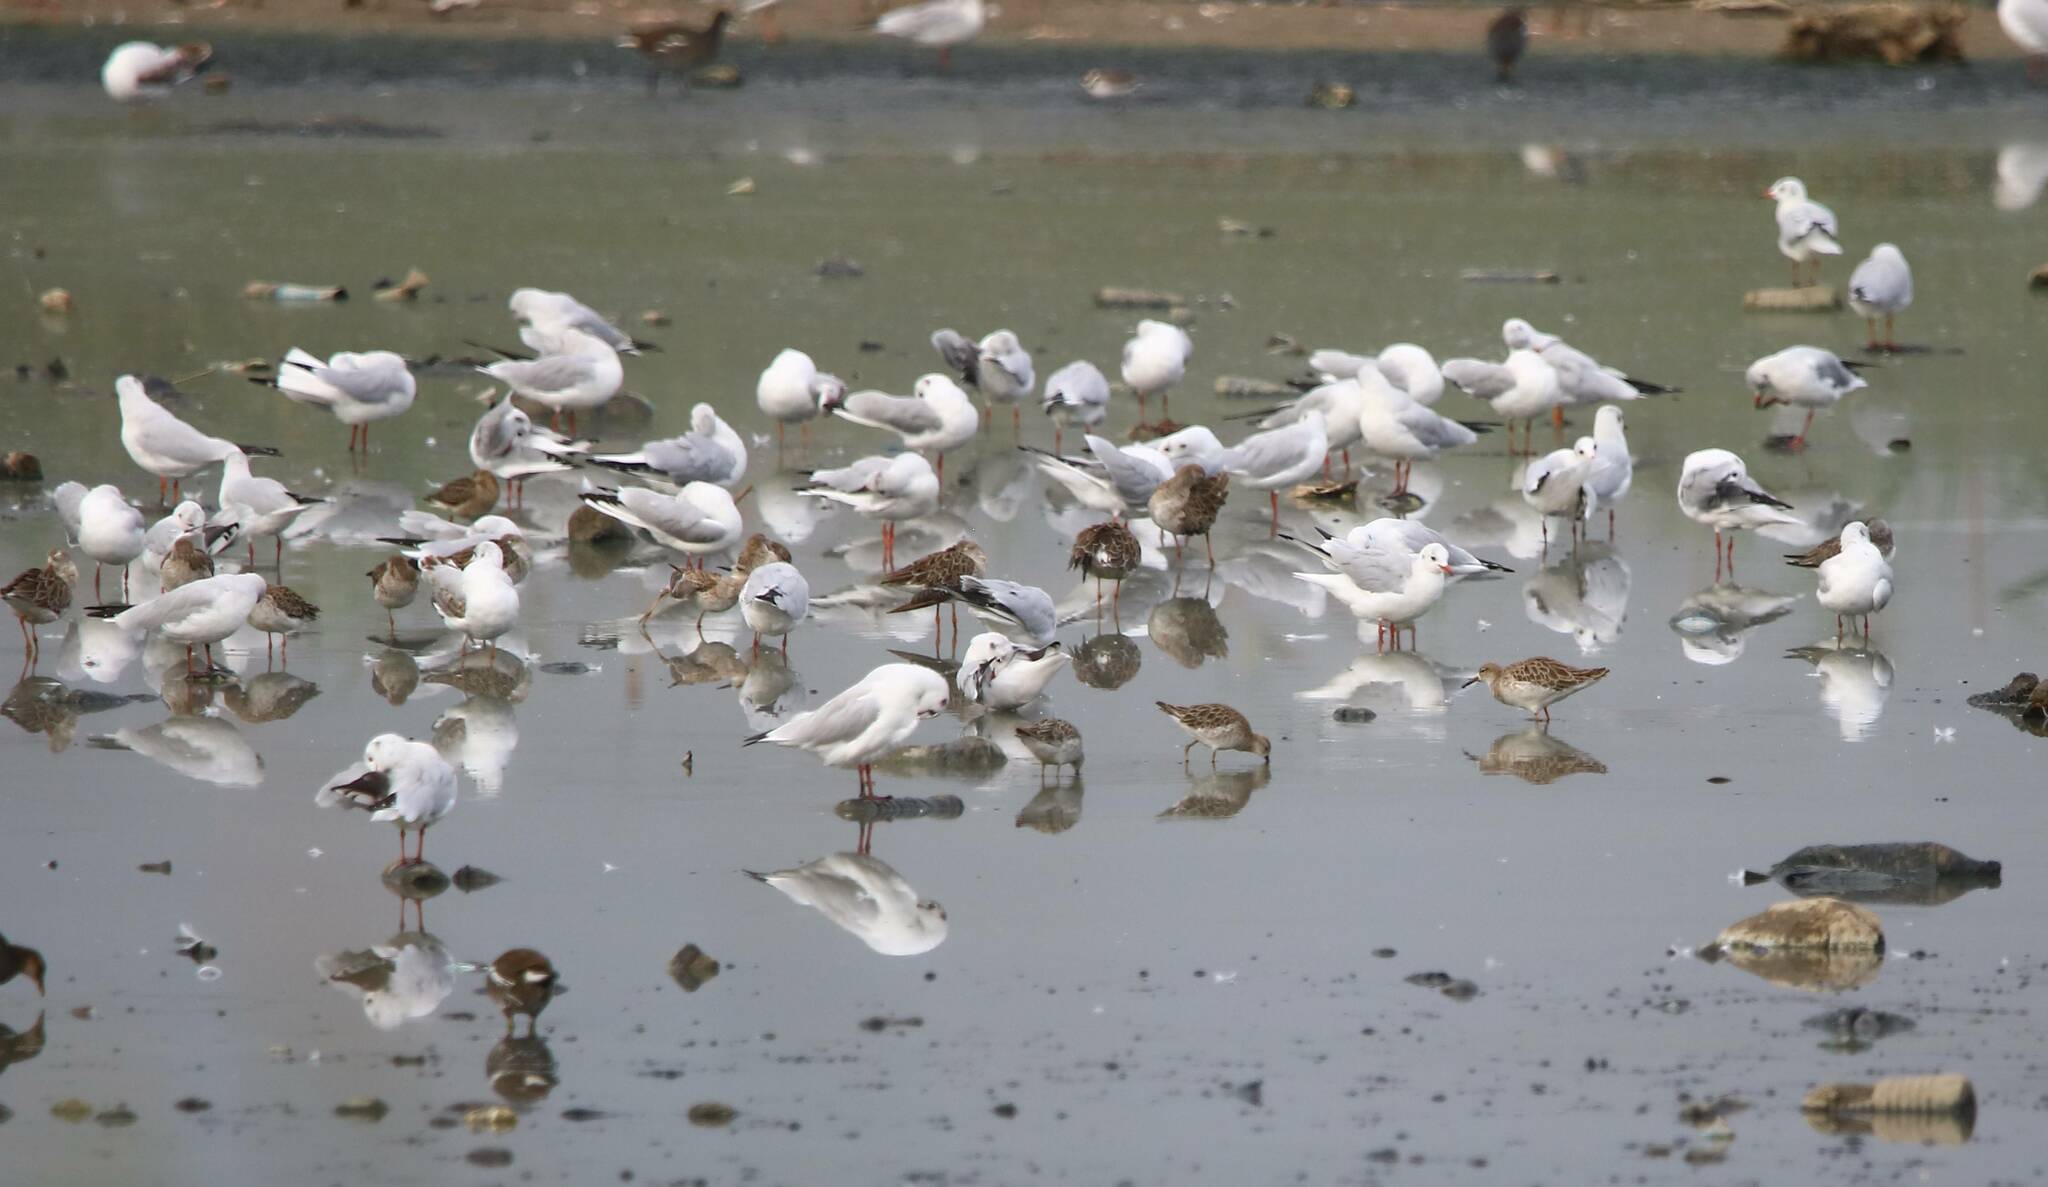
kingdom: Animalia
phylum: Chordata
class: Aves
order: Charadriiformes
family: Laridae
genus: Chroicocephalus
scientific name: Chroicocephalus ridibundus
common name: Black-headed gull
